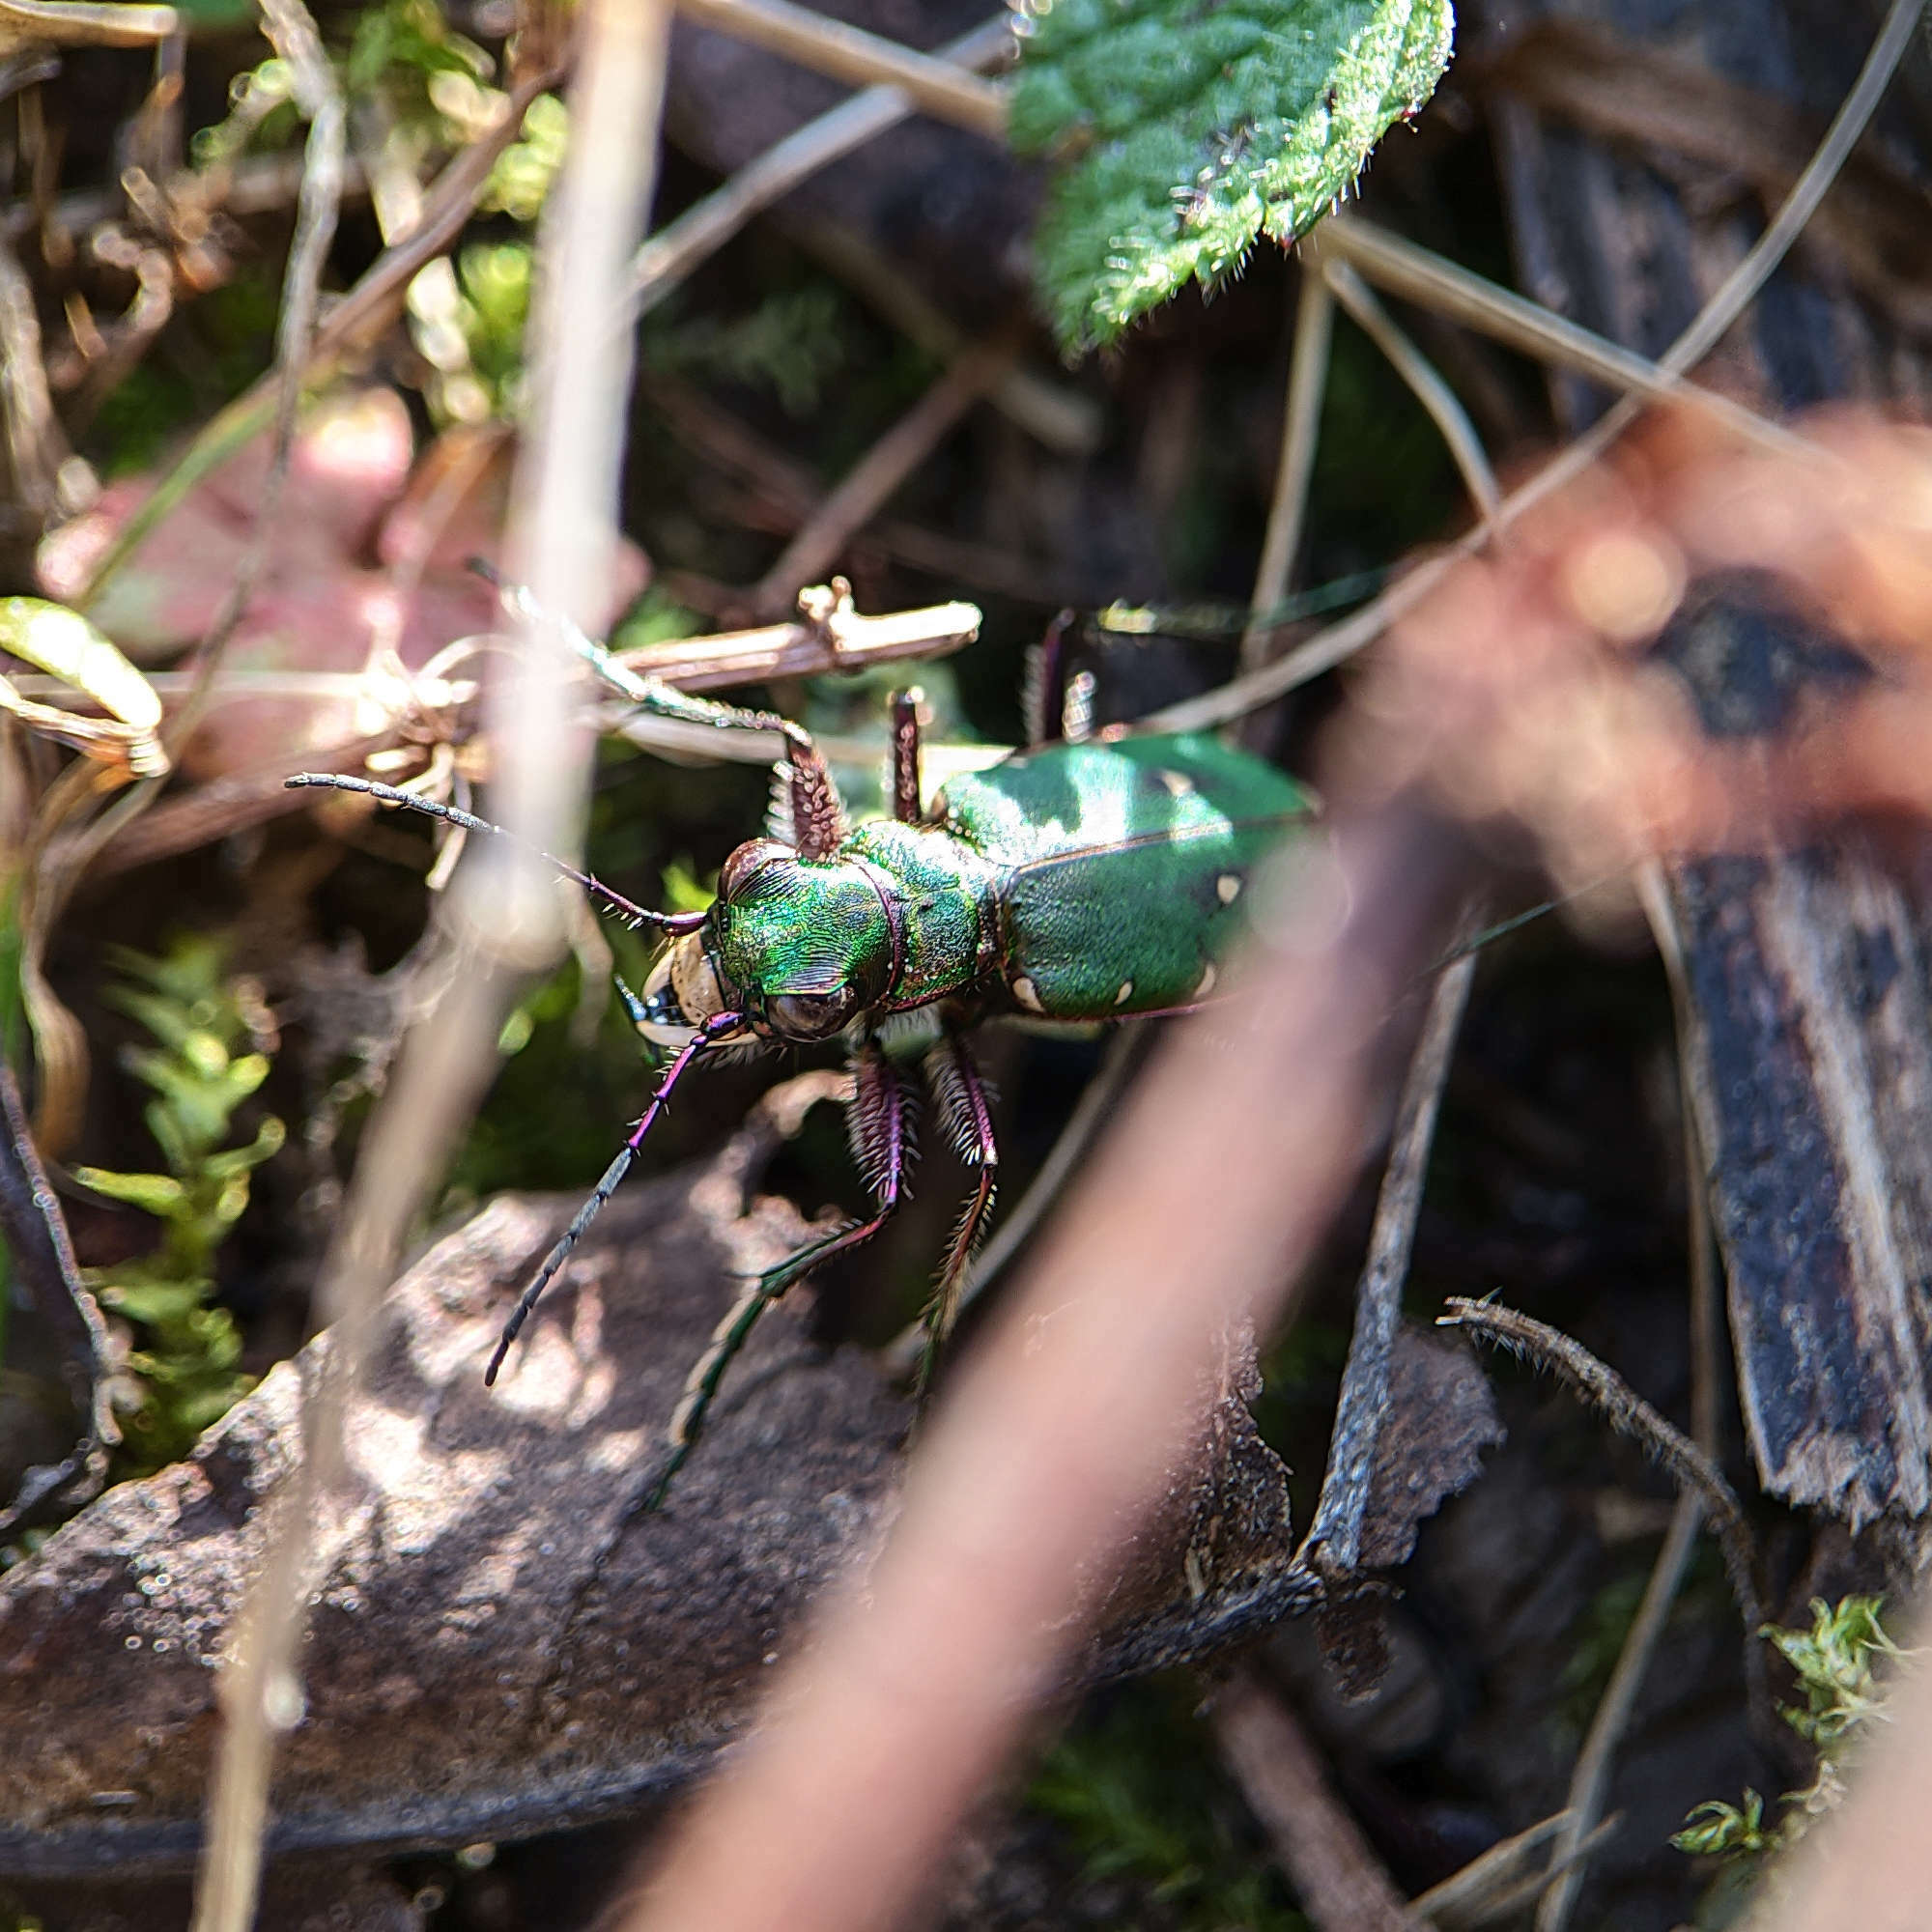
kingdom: Animalia
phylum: Arthropoda
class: Insecta
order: Coleoptera
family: Carabidae
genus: Cicindela
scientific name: Cicindela campestris
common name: Common tiger beetle
